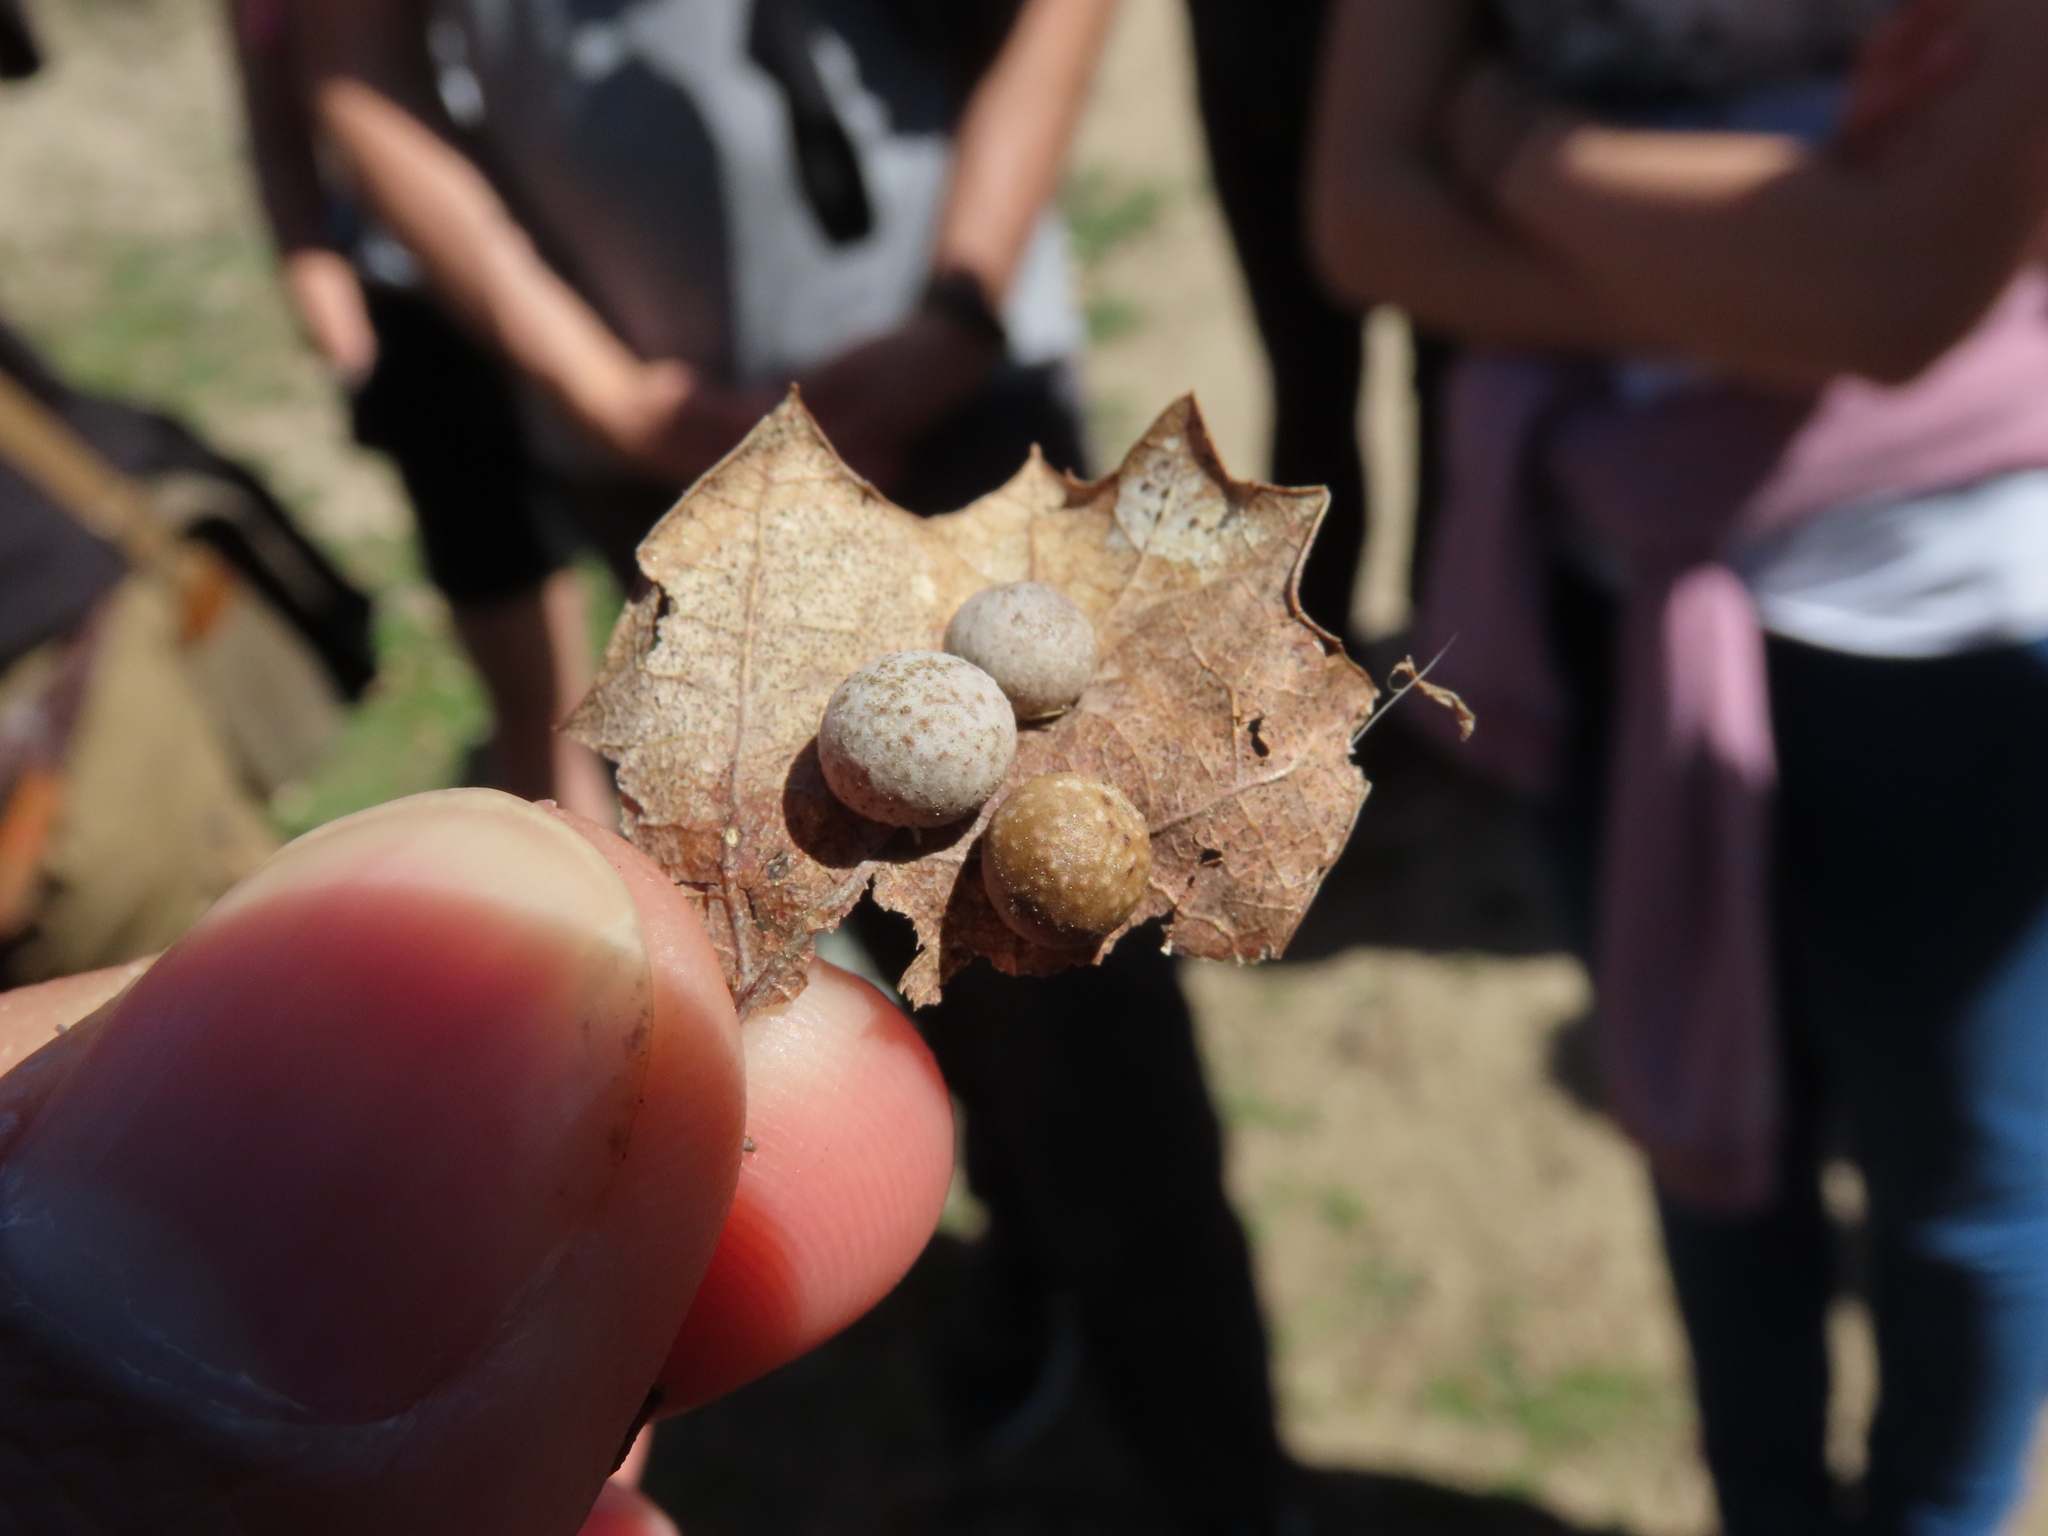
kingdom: Animalia
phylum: Arthropoda
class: Insecta
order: Hymenoptera
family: Cynipidae
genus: Cynips
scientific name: Cynips quercus
